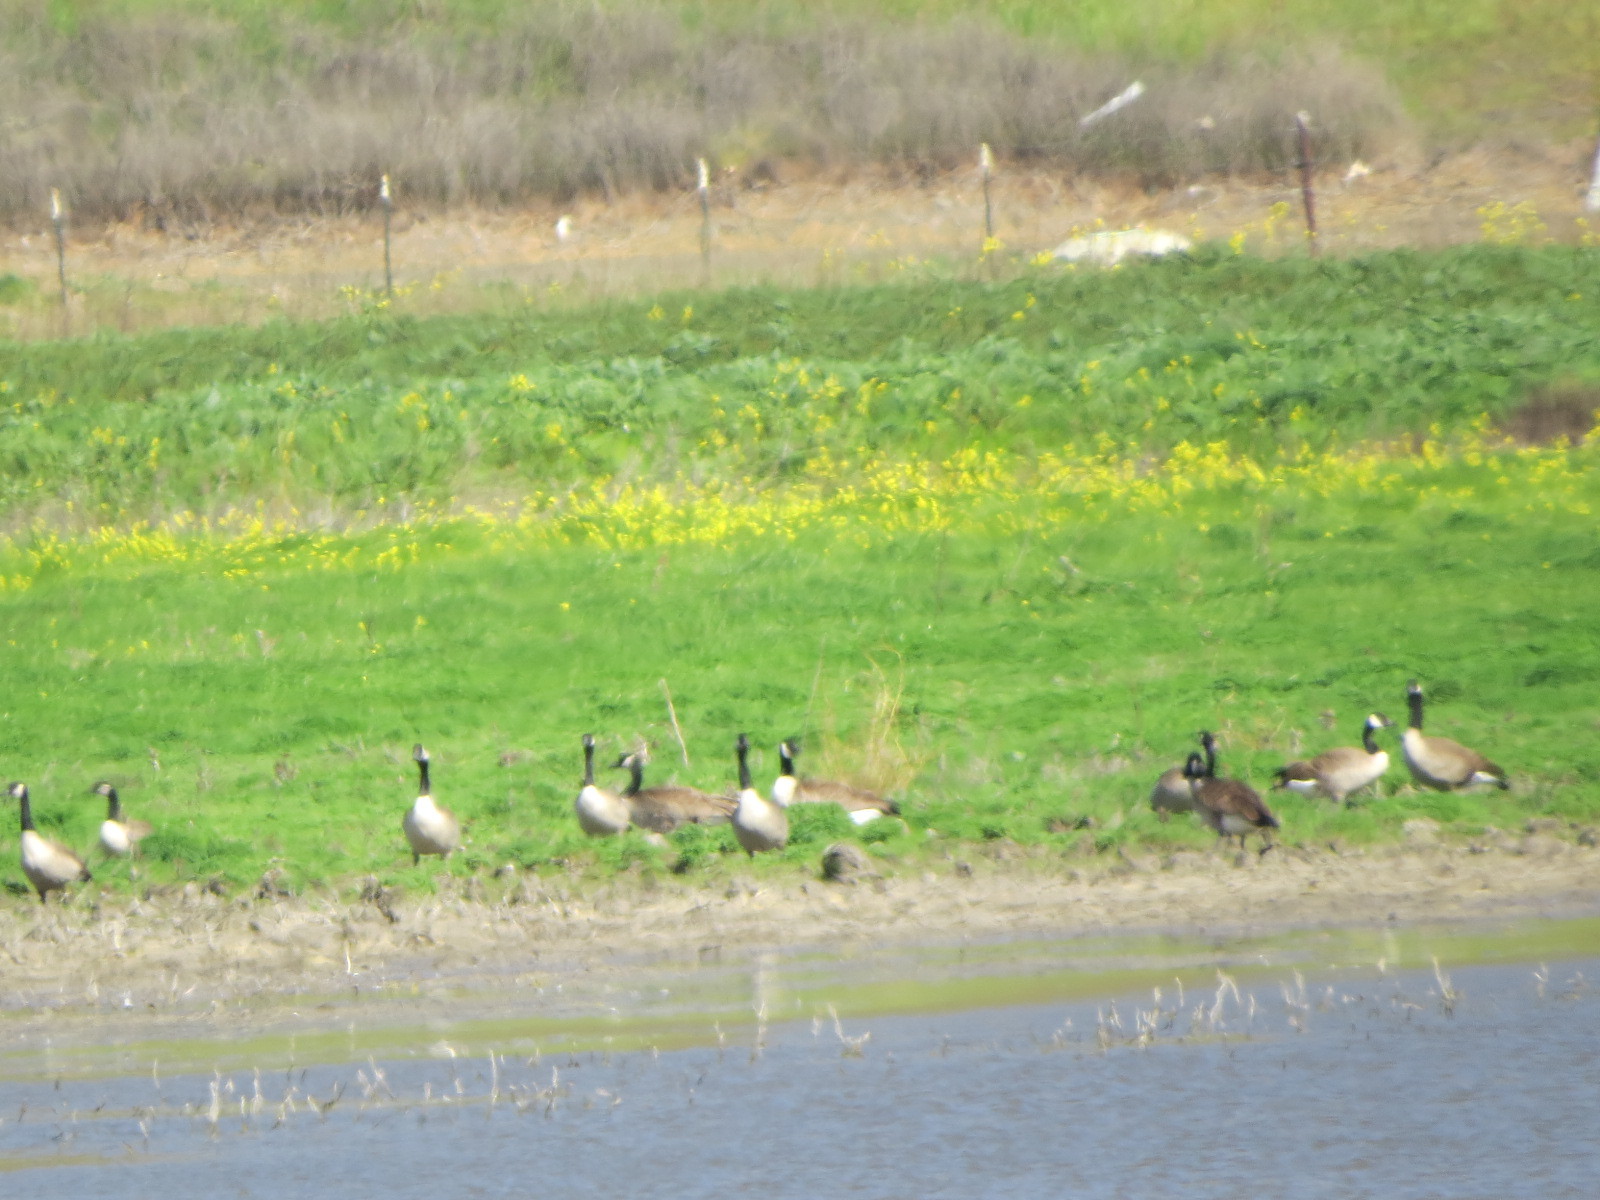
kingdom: Animalia
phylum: Chordata
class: Aves
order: Anseriformes
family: Anatidae
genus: Branta
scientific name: Branta canadensis
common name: Canada goose
